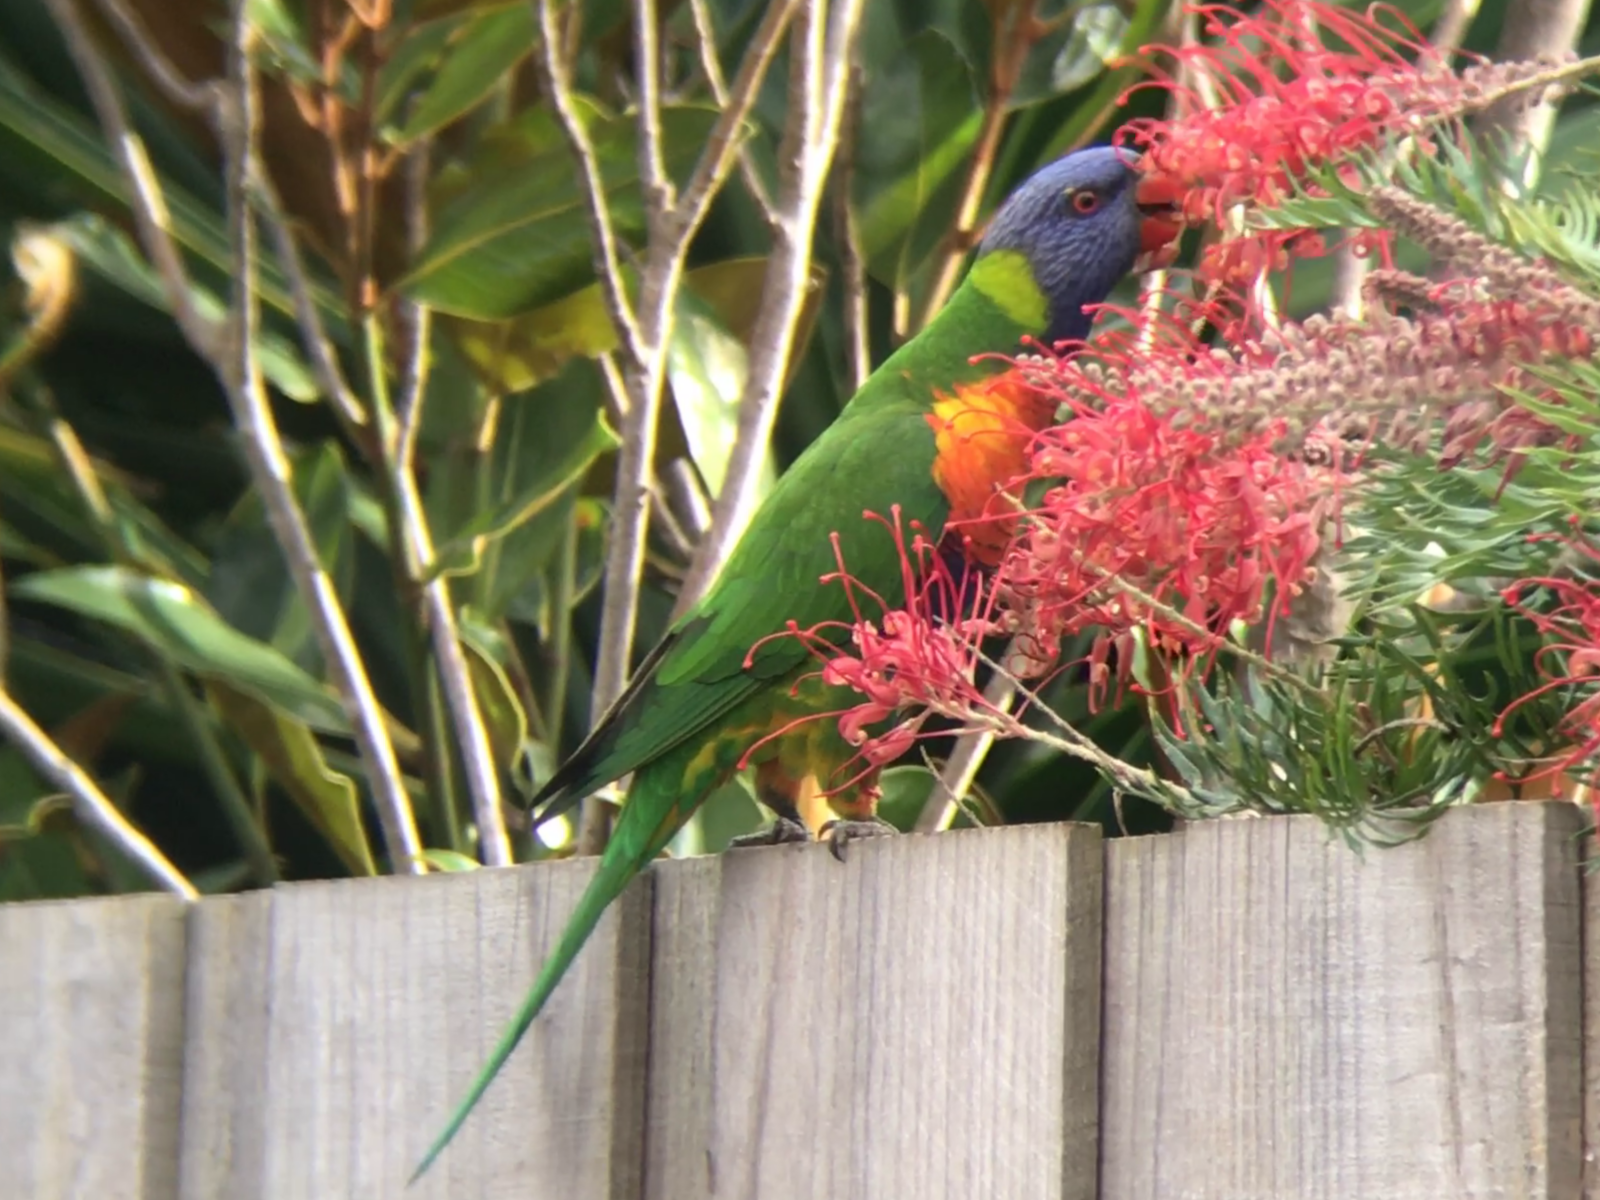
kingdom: Animalia
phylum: Chordata
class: Aves
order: Psittaciformes
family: Psittacidae
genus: Trichoglossus
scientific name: Trichoglossus haematodus
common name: Coconut lorikeet
